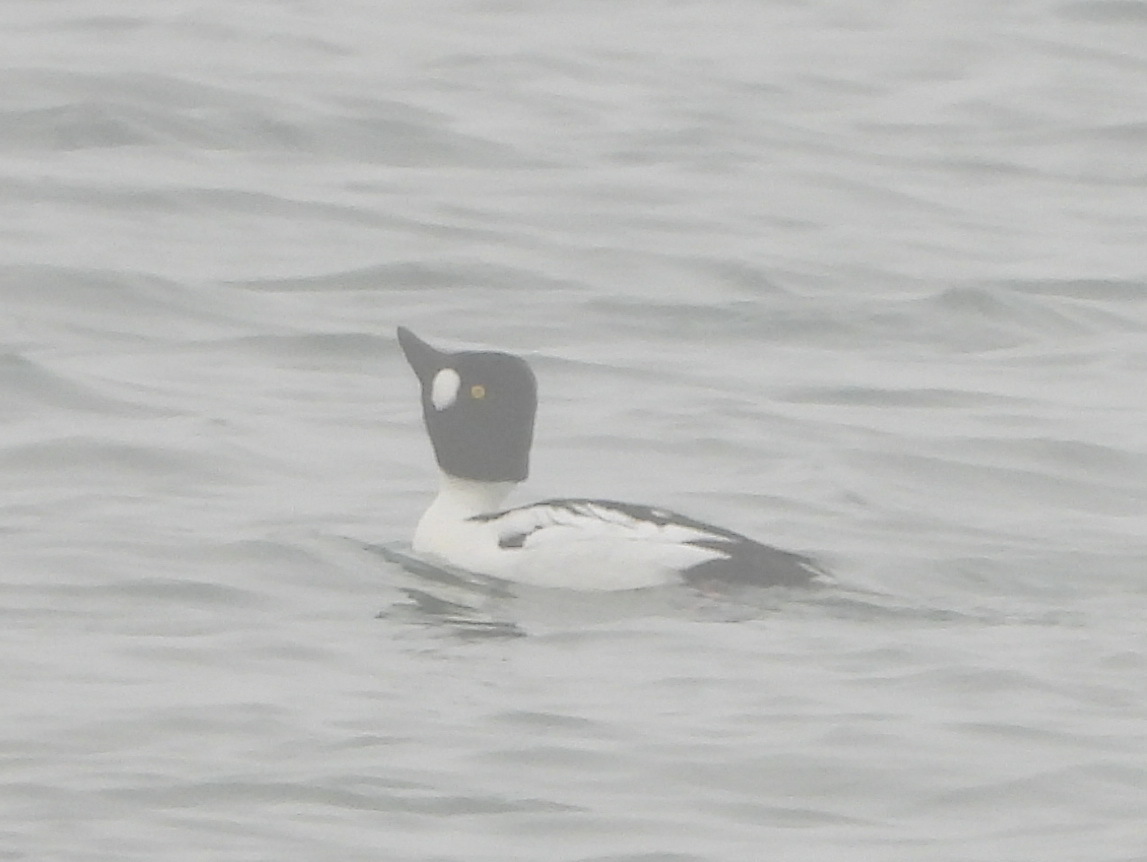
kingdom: Animalia
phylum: Chordata
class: Aves
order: Anseriformes
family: Anatidae
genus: Bucephala
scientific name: Bucephala clangula
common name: Common goldeneye
